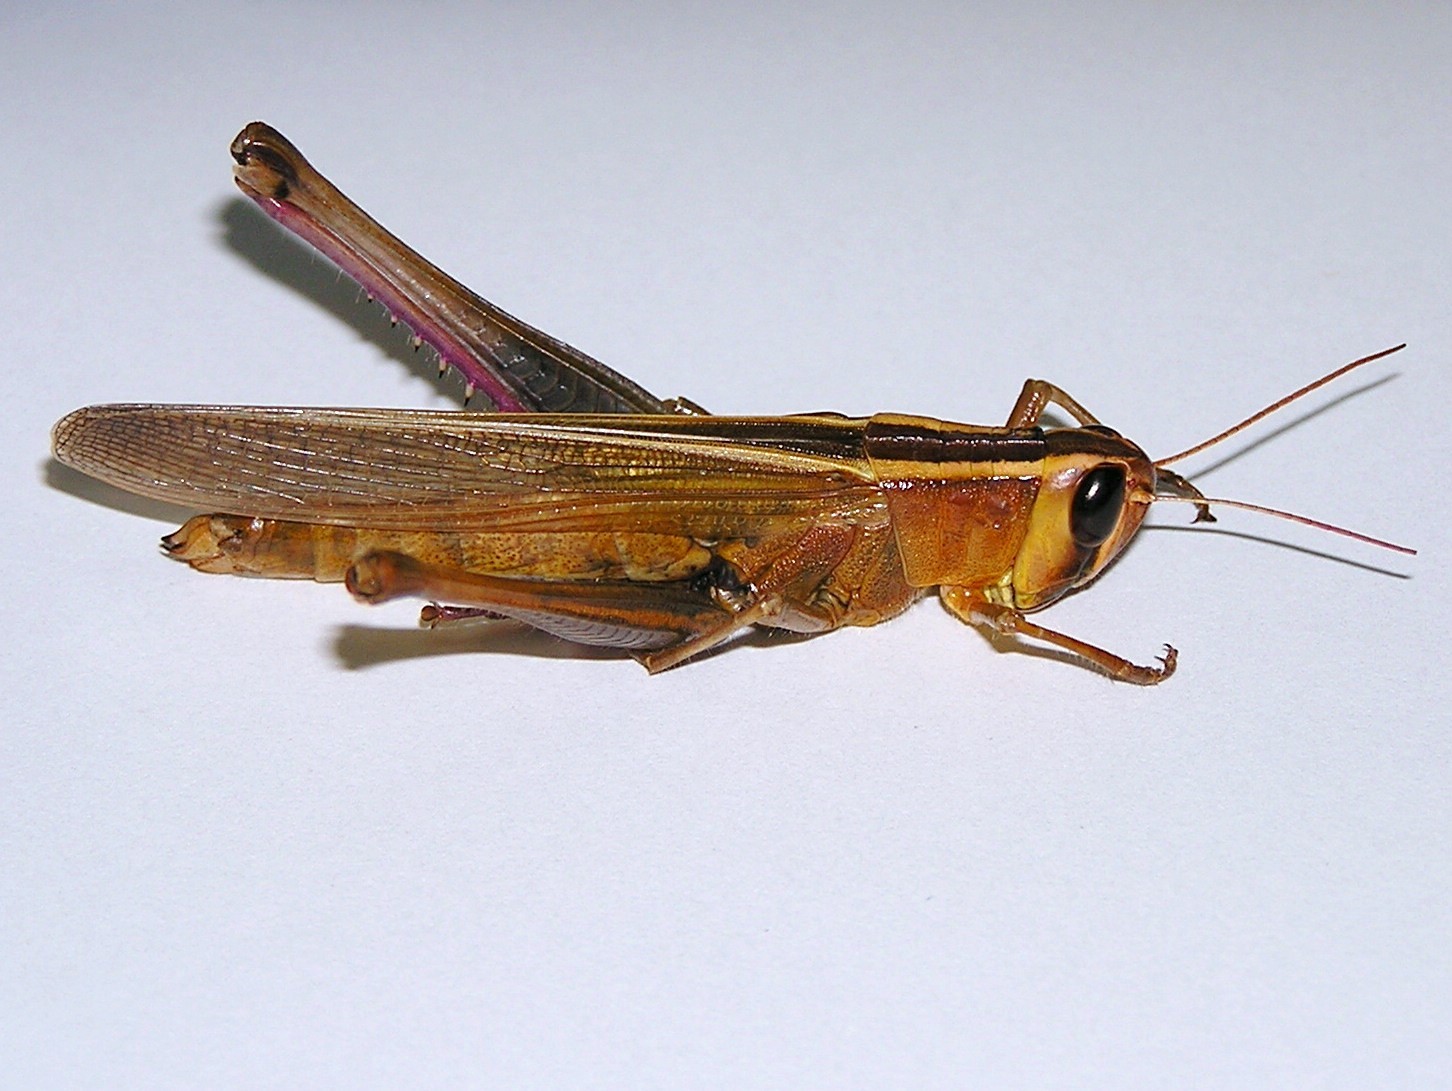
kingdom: Animalia
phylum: Arthropoda
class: Insecta
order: Orthoptera
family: Acrididae
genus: Choroedocus
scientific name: Choroedocus violaceipes
